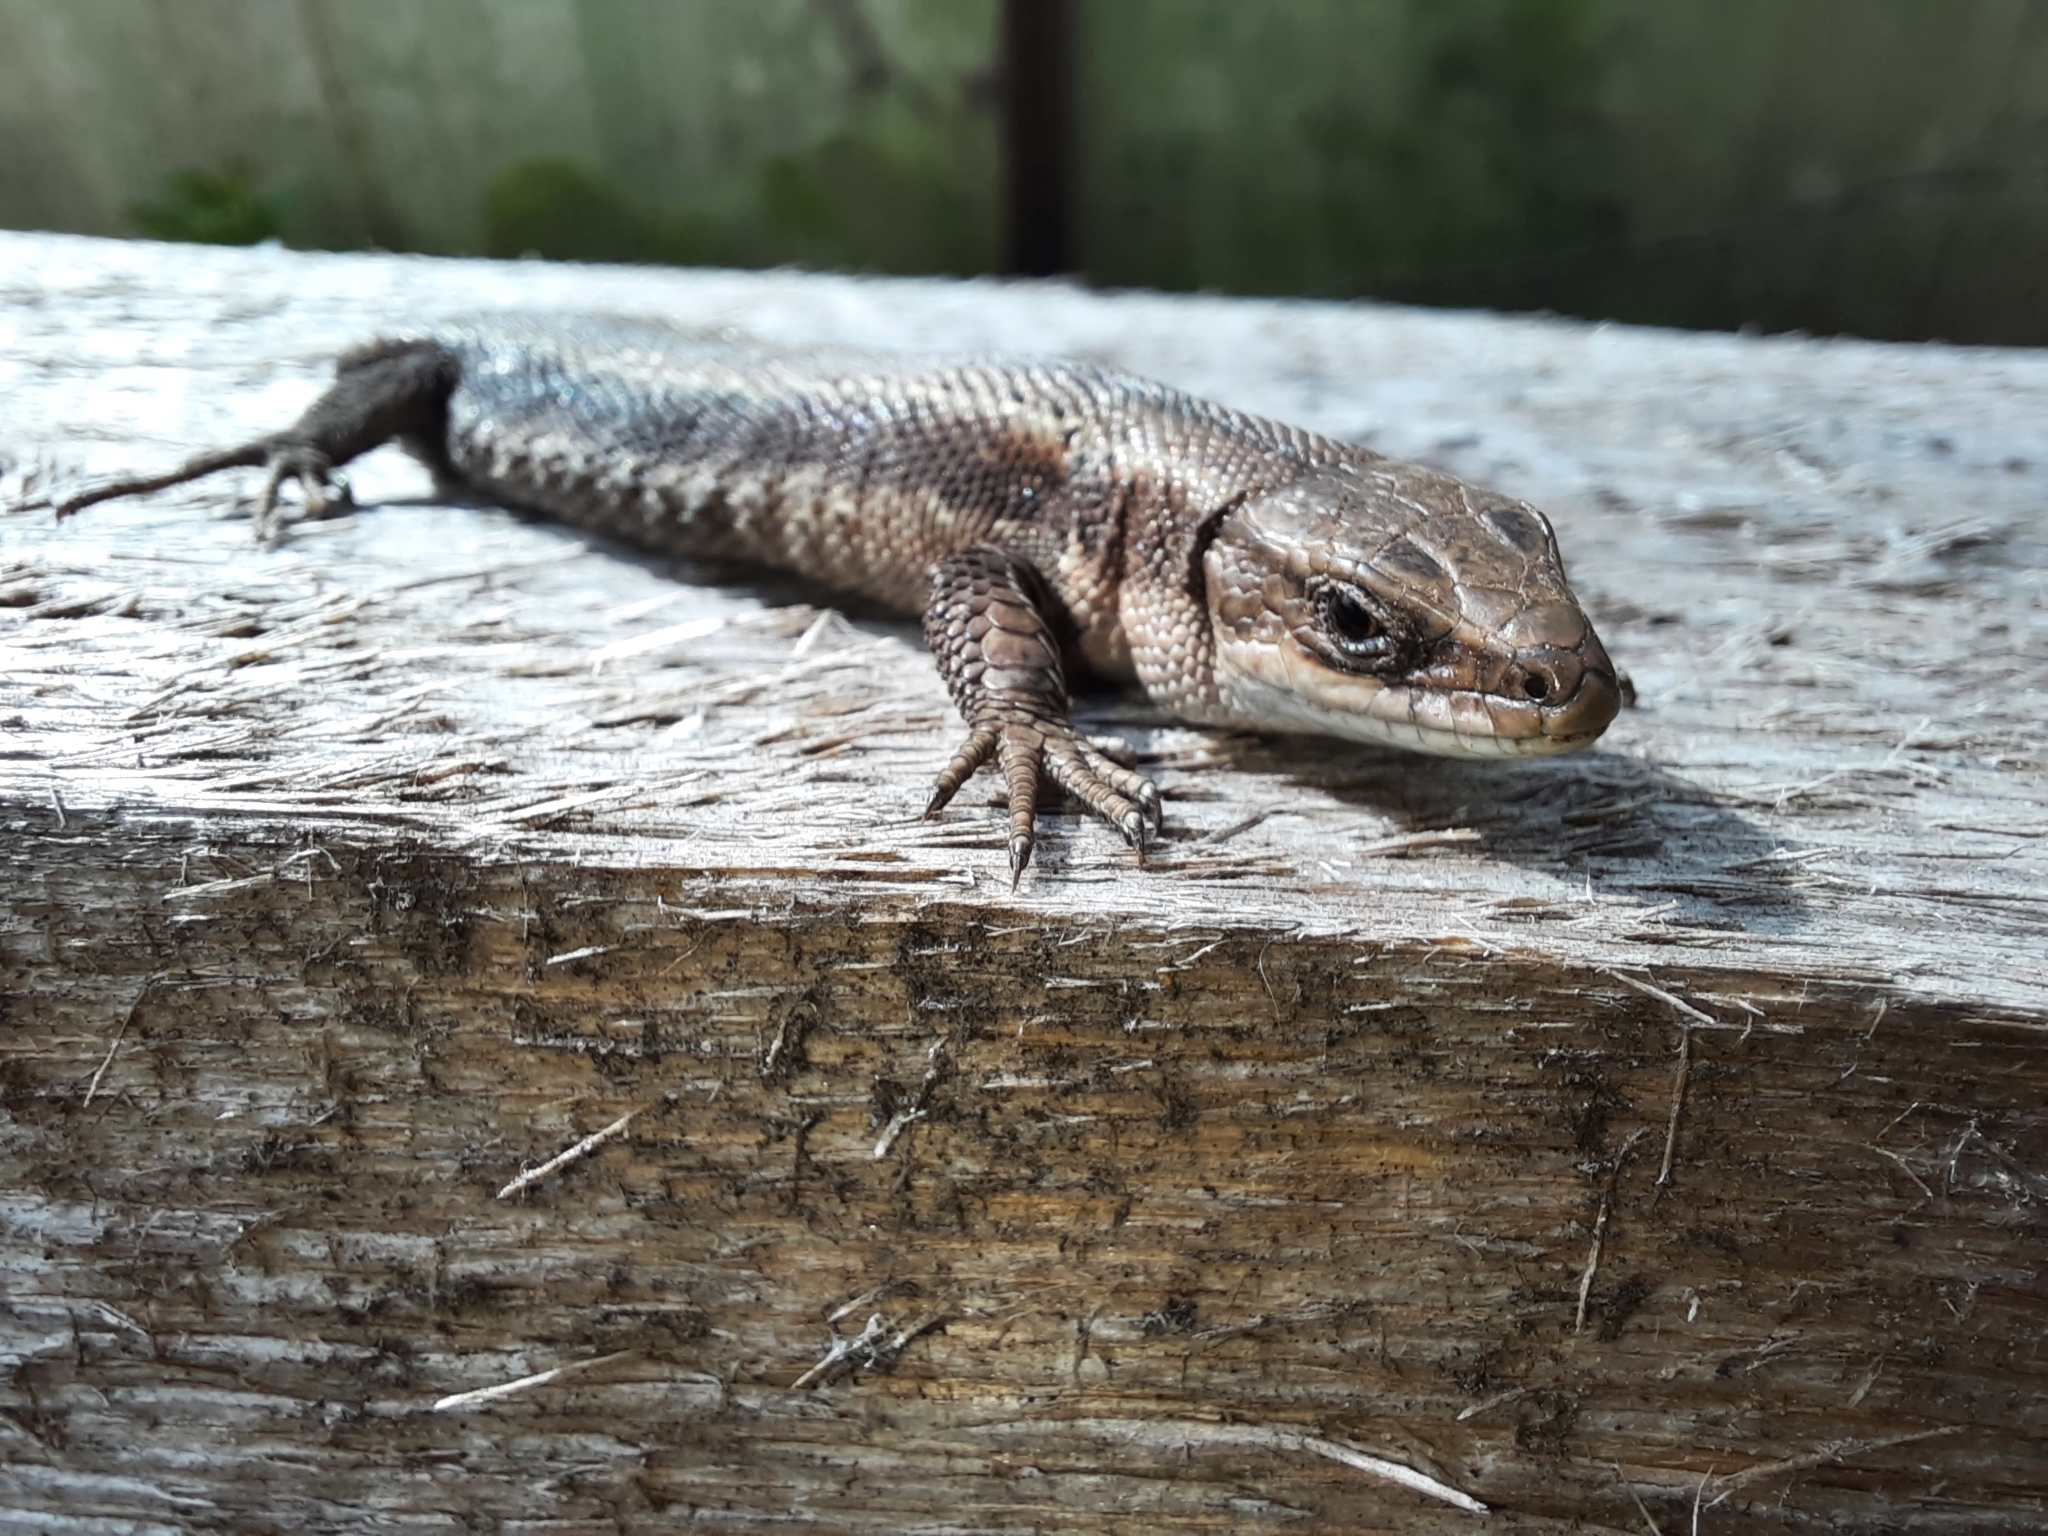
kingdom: Animalia
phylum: Chordata
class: Squamata
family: Lacertidae
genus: Zootoca
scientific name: Zootoca vivipara
